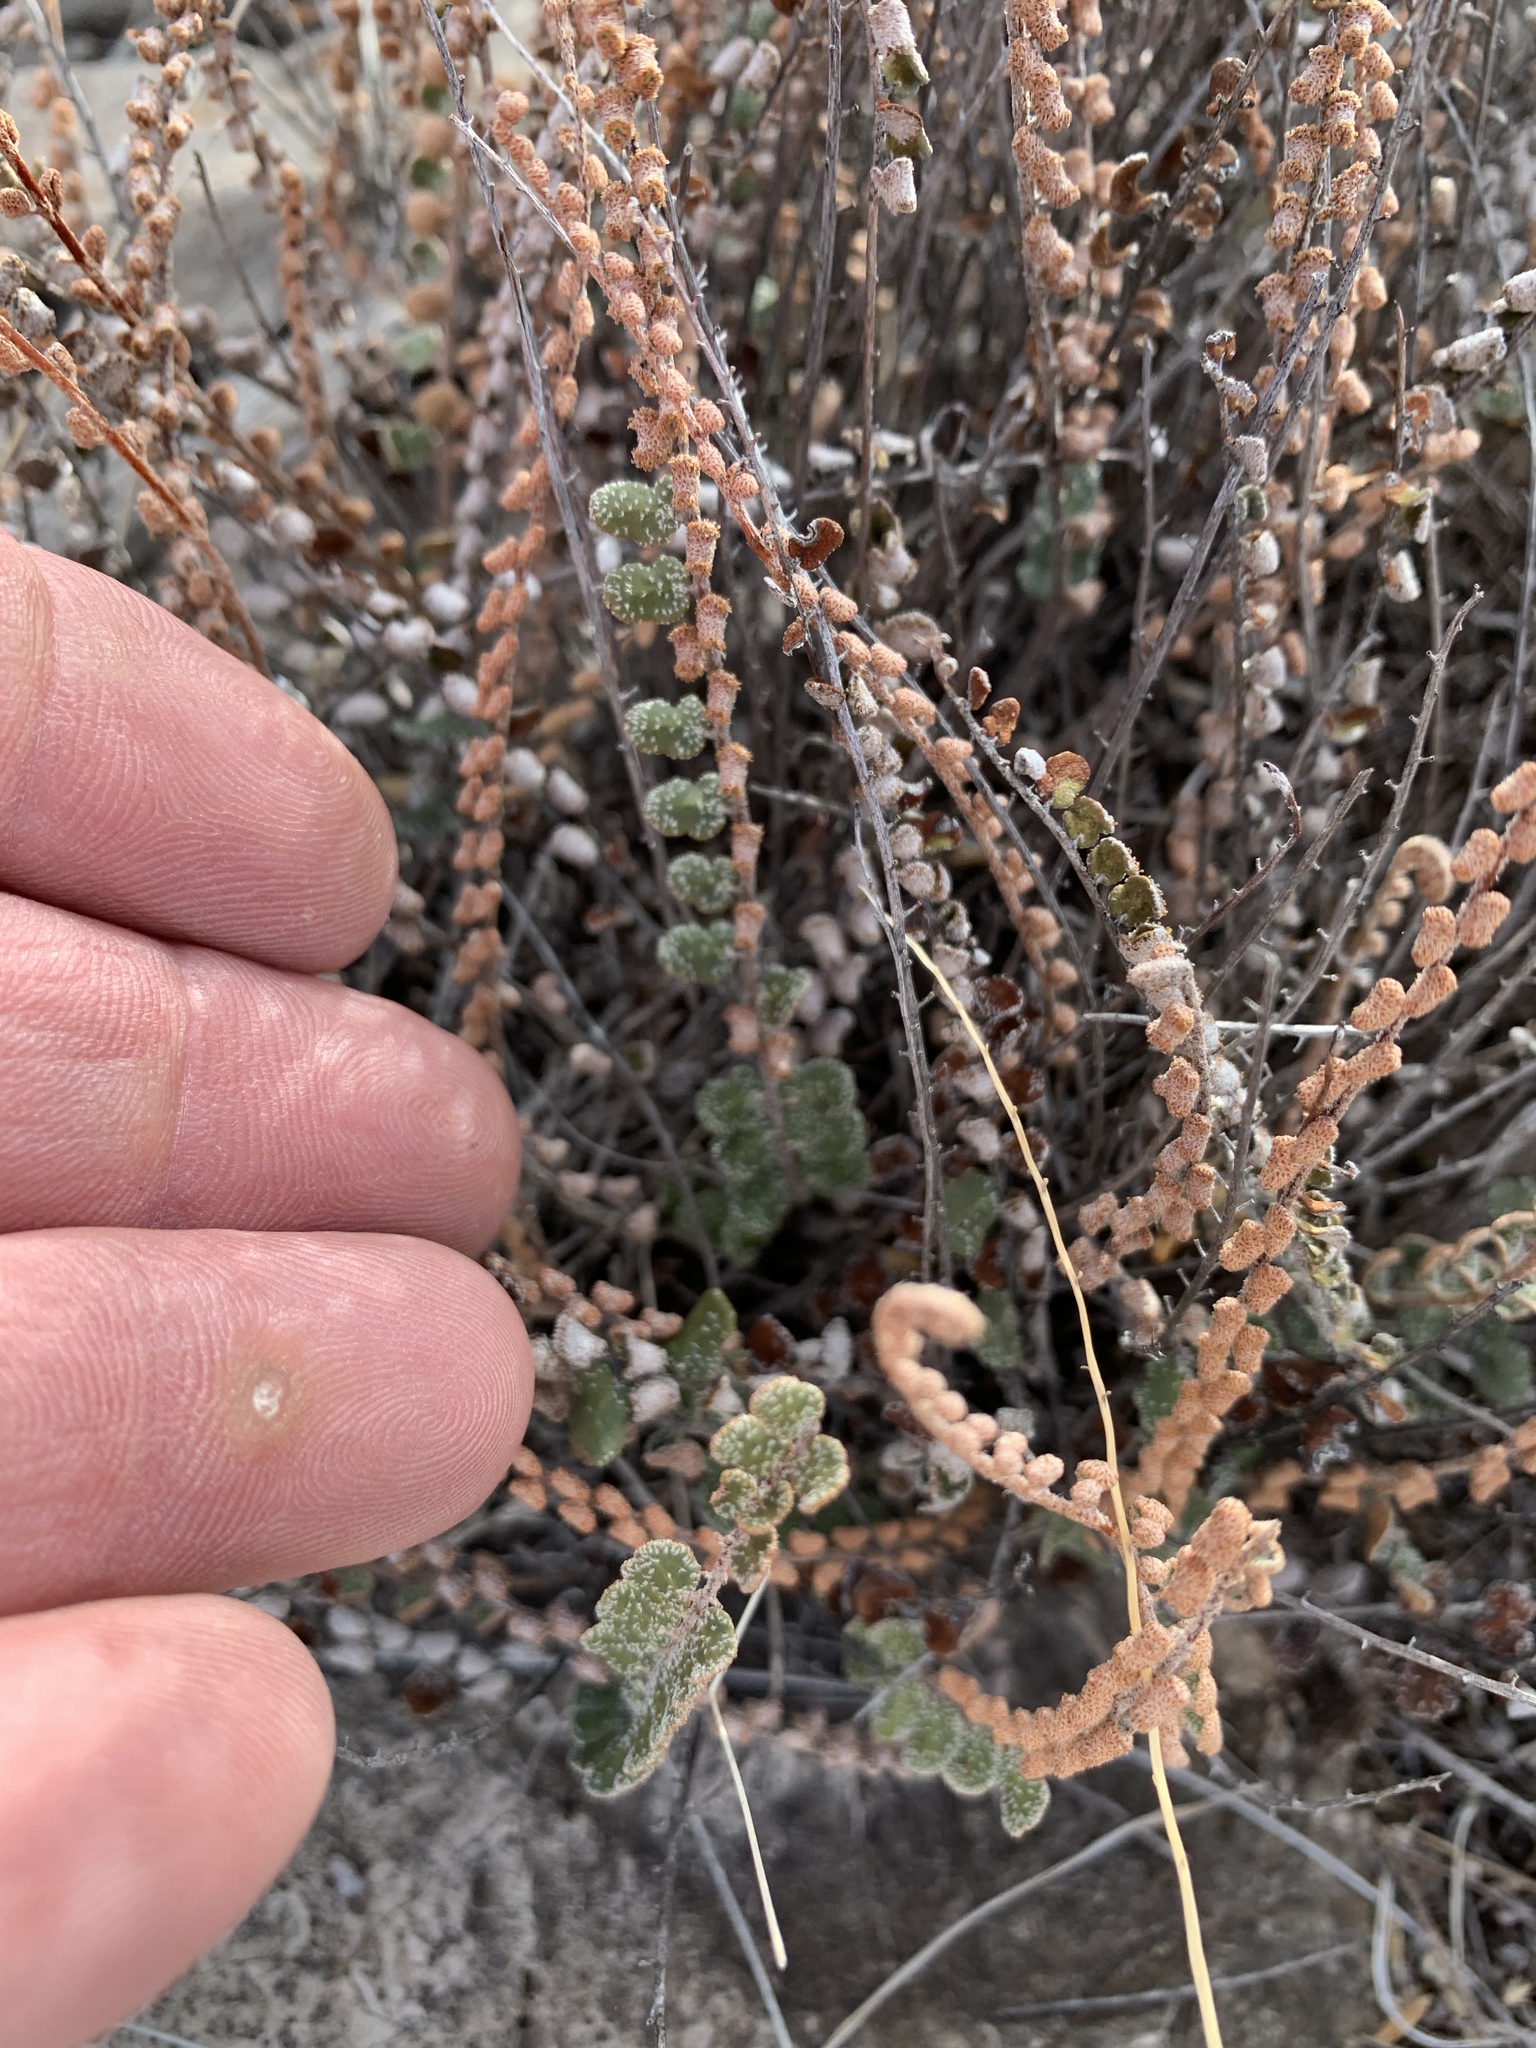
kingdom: Plantae
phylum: Tracheophyta
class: Polypodiopsida
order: Polypodiales
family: Pteridaceae
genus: Astrolepis
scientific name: Astrolepis cochisensis
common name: Scaly cloak fern
